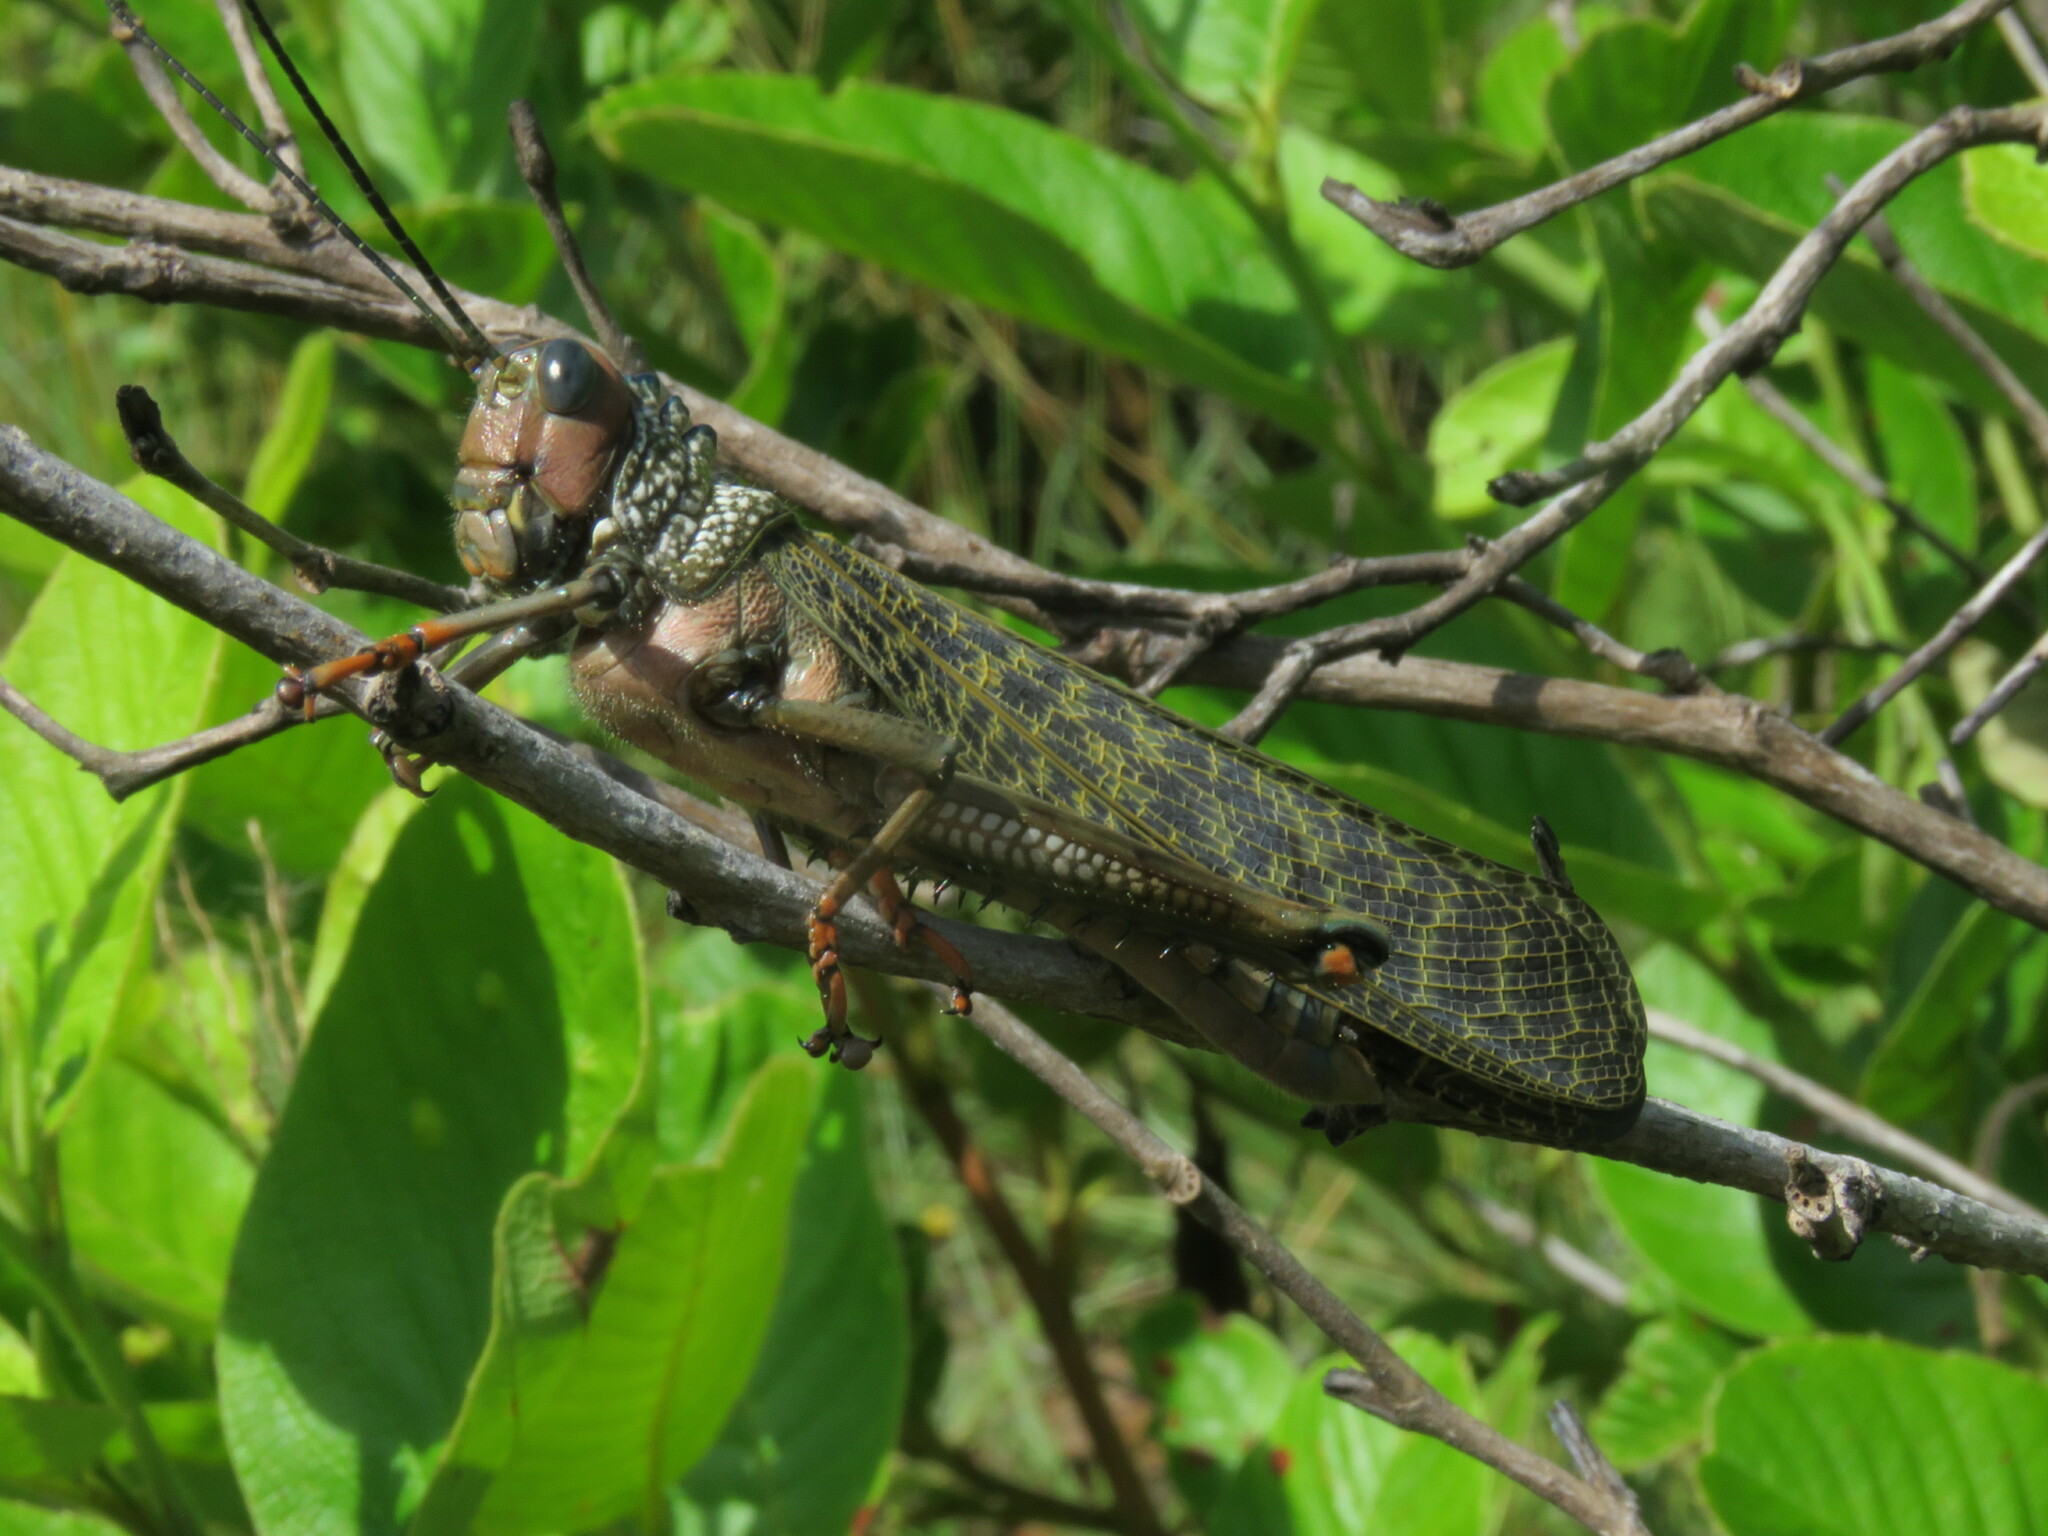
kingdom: Animalia
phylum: Arthropoda
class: Insecta
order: Orthoptera
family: Romaleidae
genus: Tropidacris
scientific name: Tropidacris cristata
